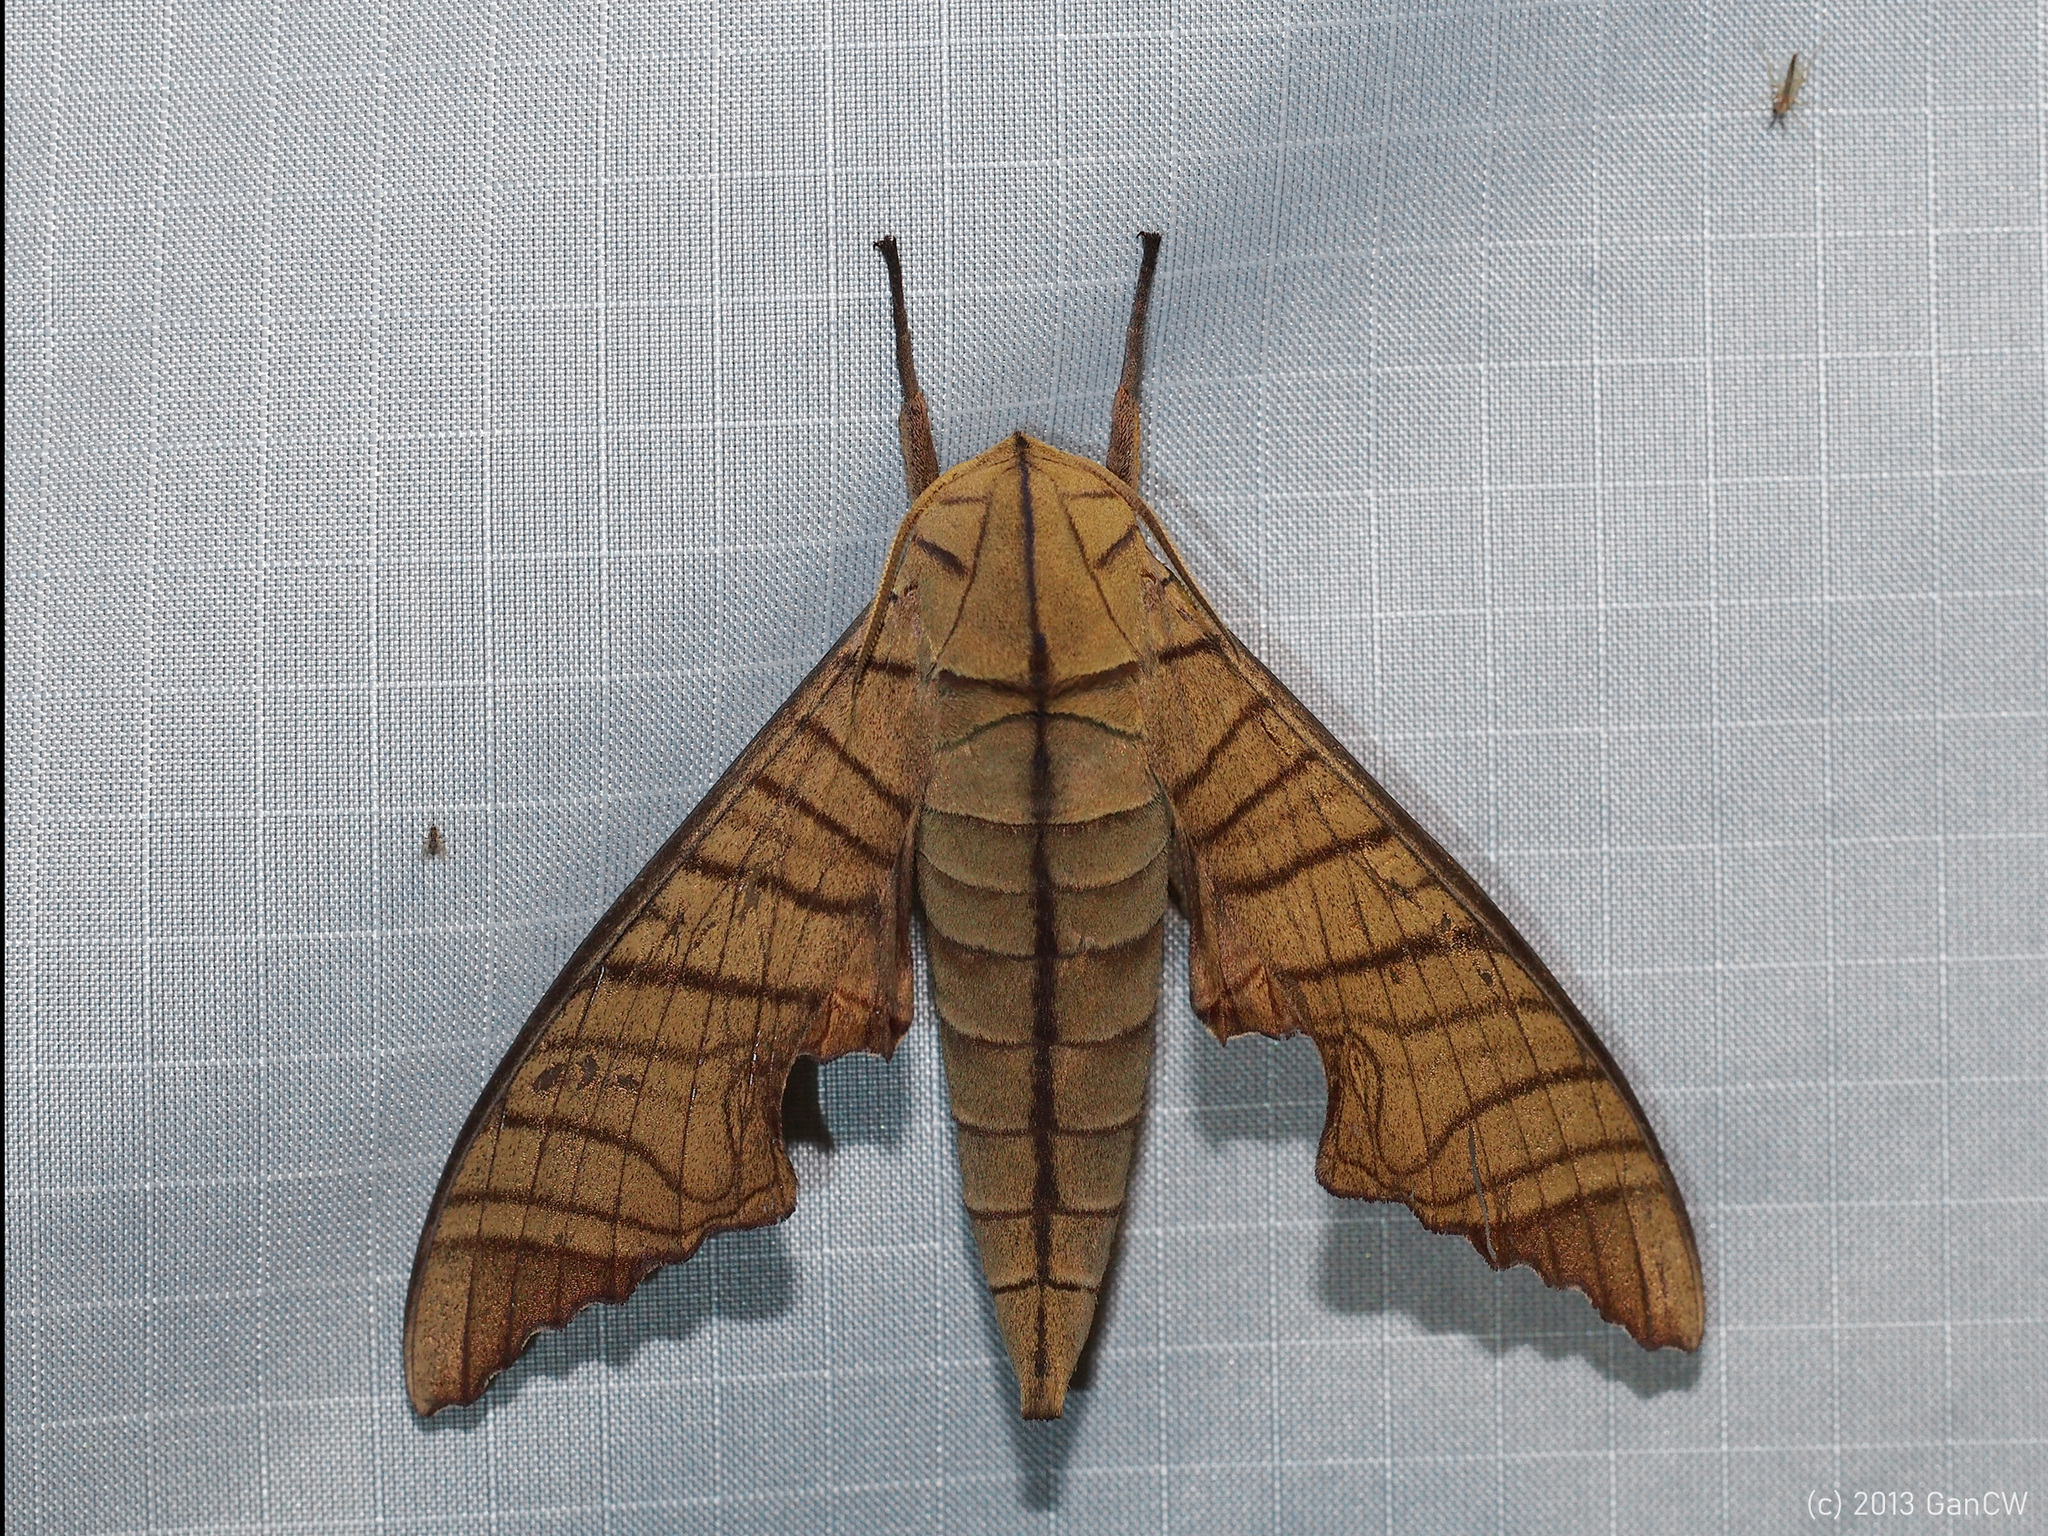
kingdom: Animalia
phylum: Arthropoda
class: Insecta
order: Lepidoptera
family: Sphingidae
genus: Marumba
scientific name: Marumba tigrina
